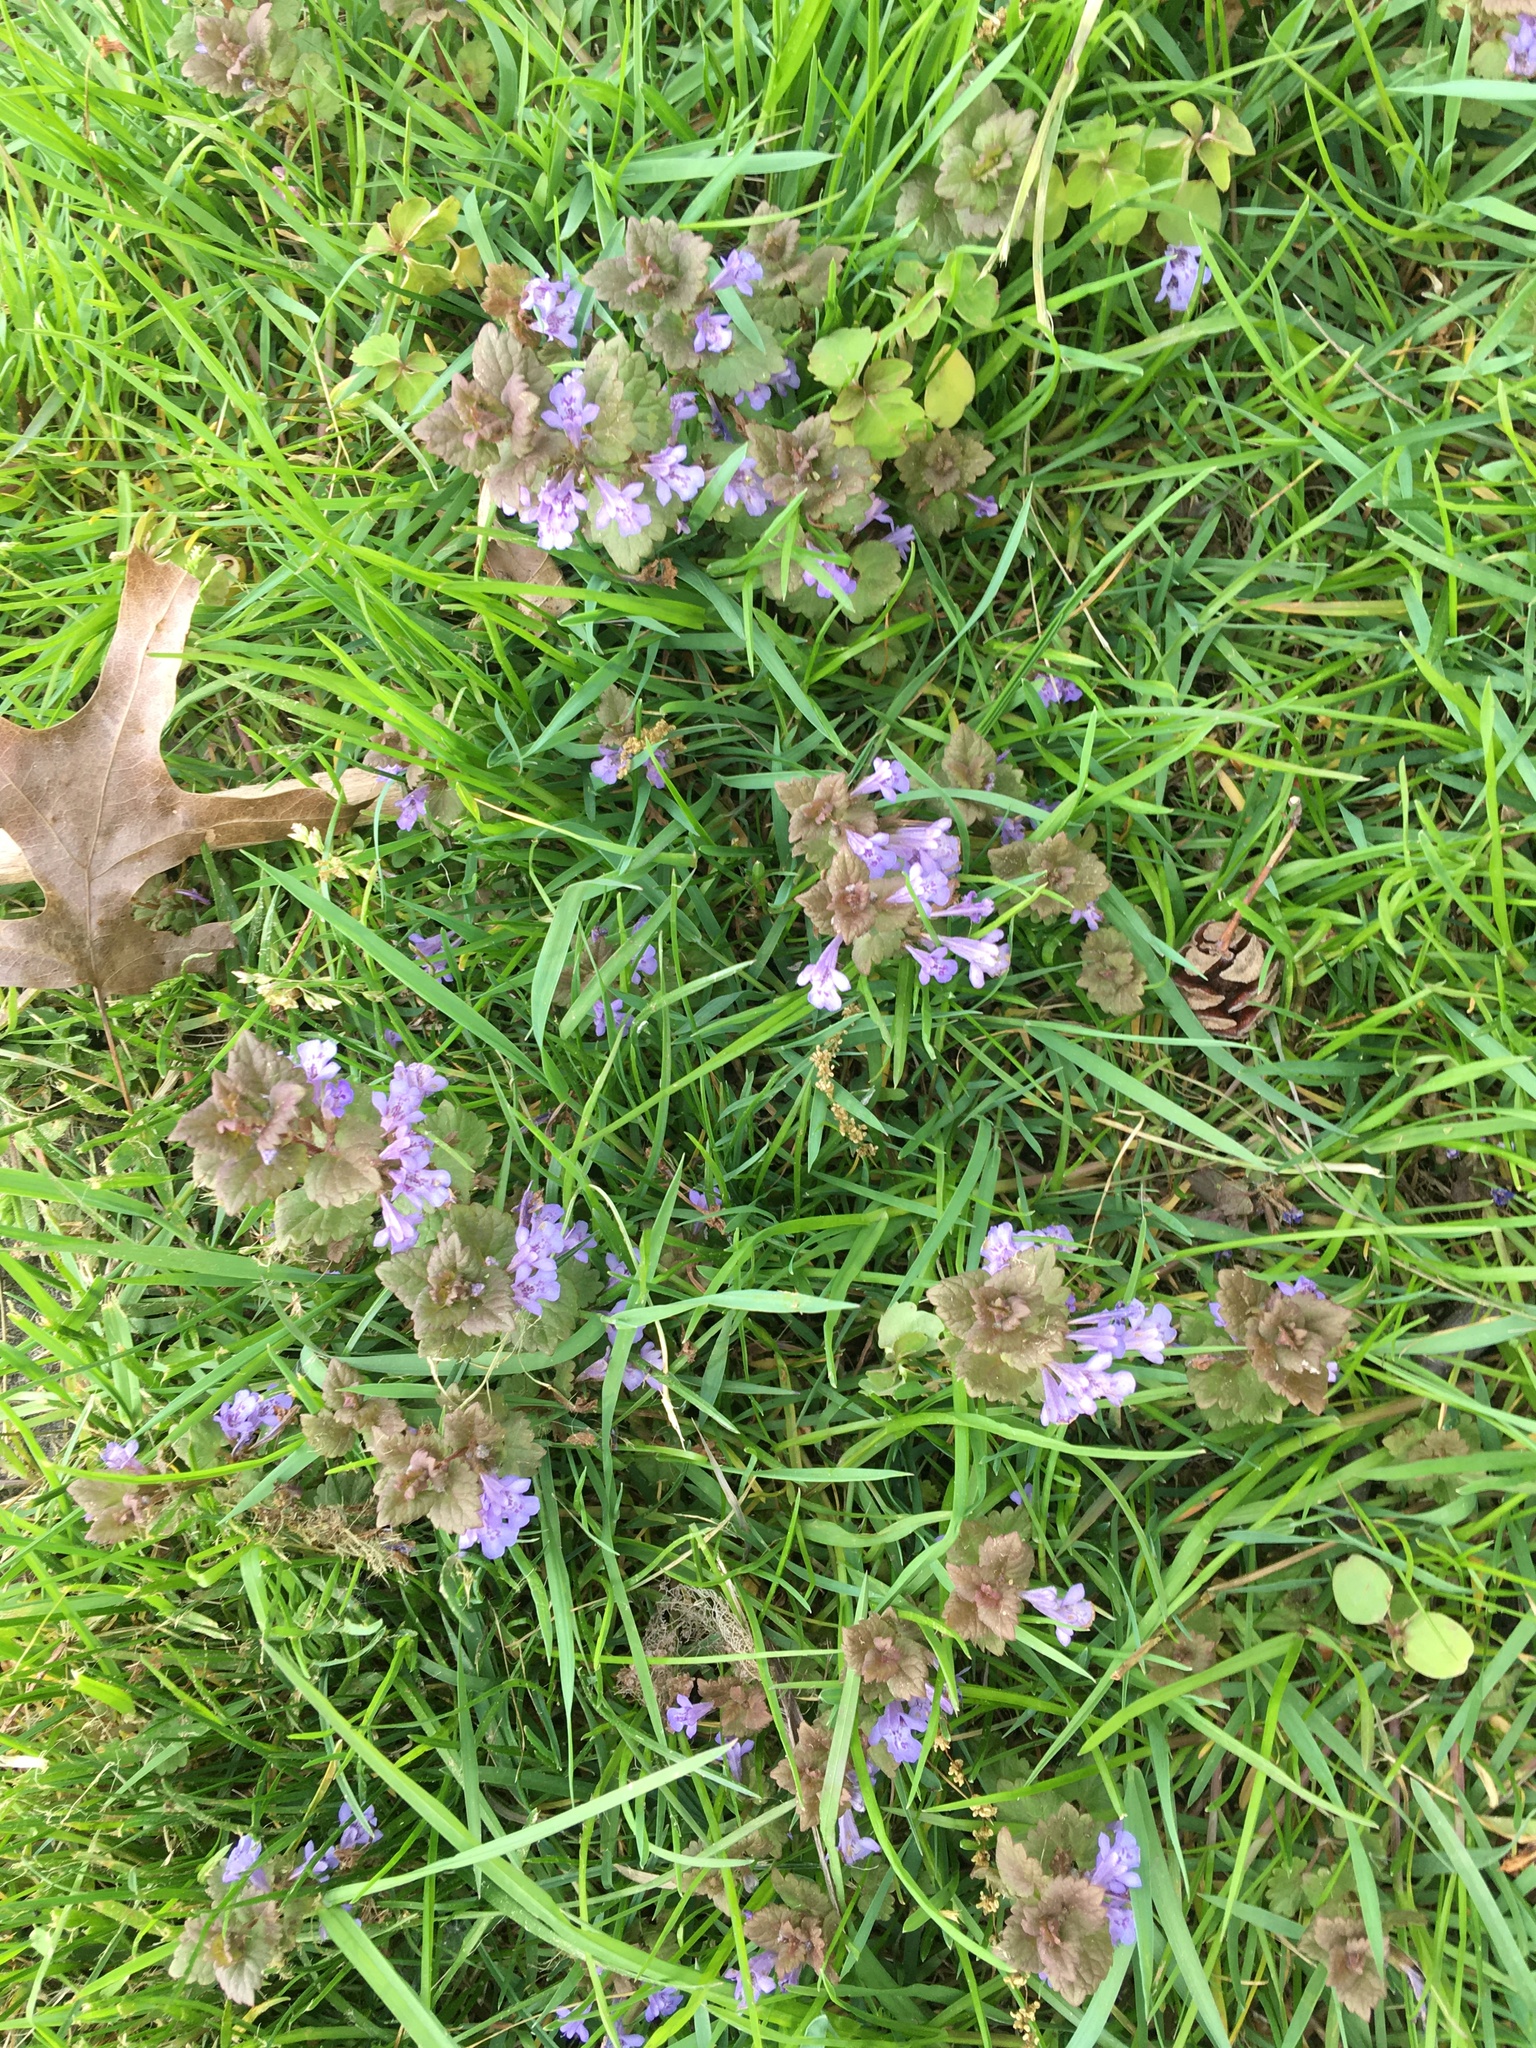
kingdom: Plantae
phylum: Tracheophyta
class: Magnoliopsida
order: Lamiales
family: Lamiaceae
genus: Glechoma
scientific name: Glechoma hederacea
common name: Ground ivy
